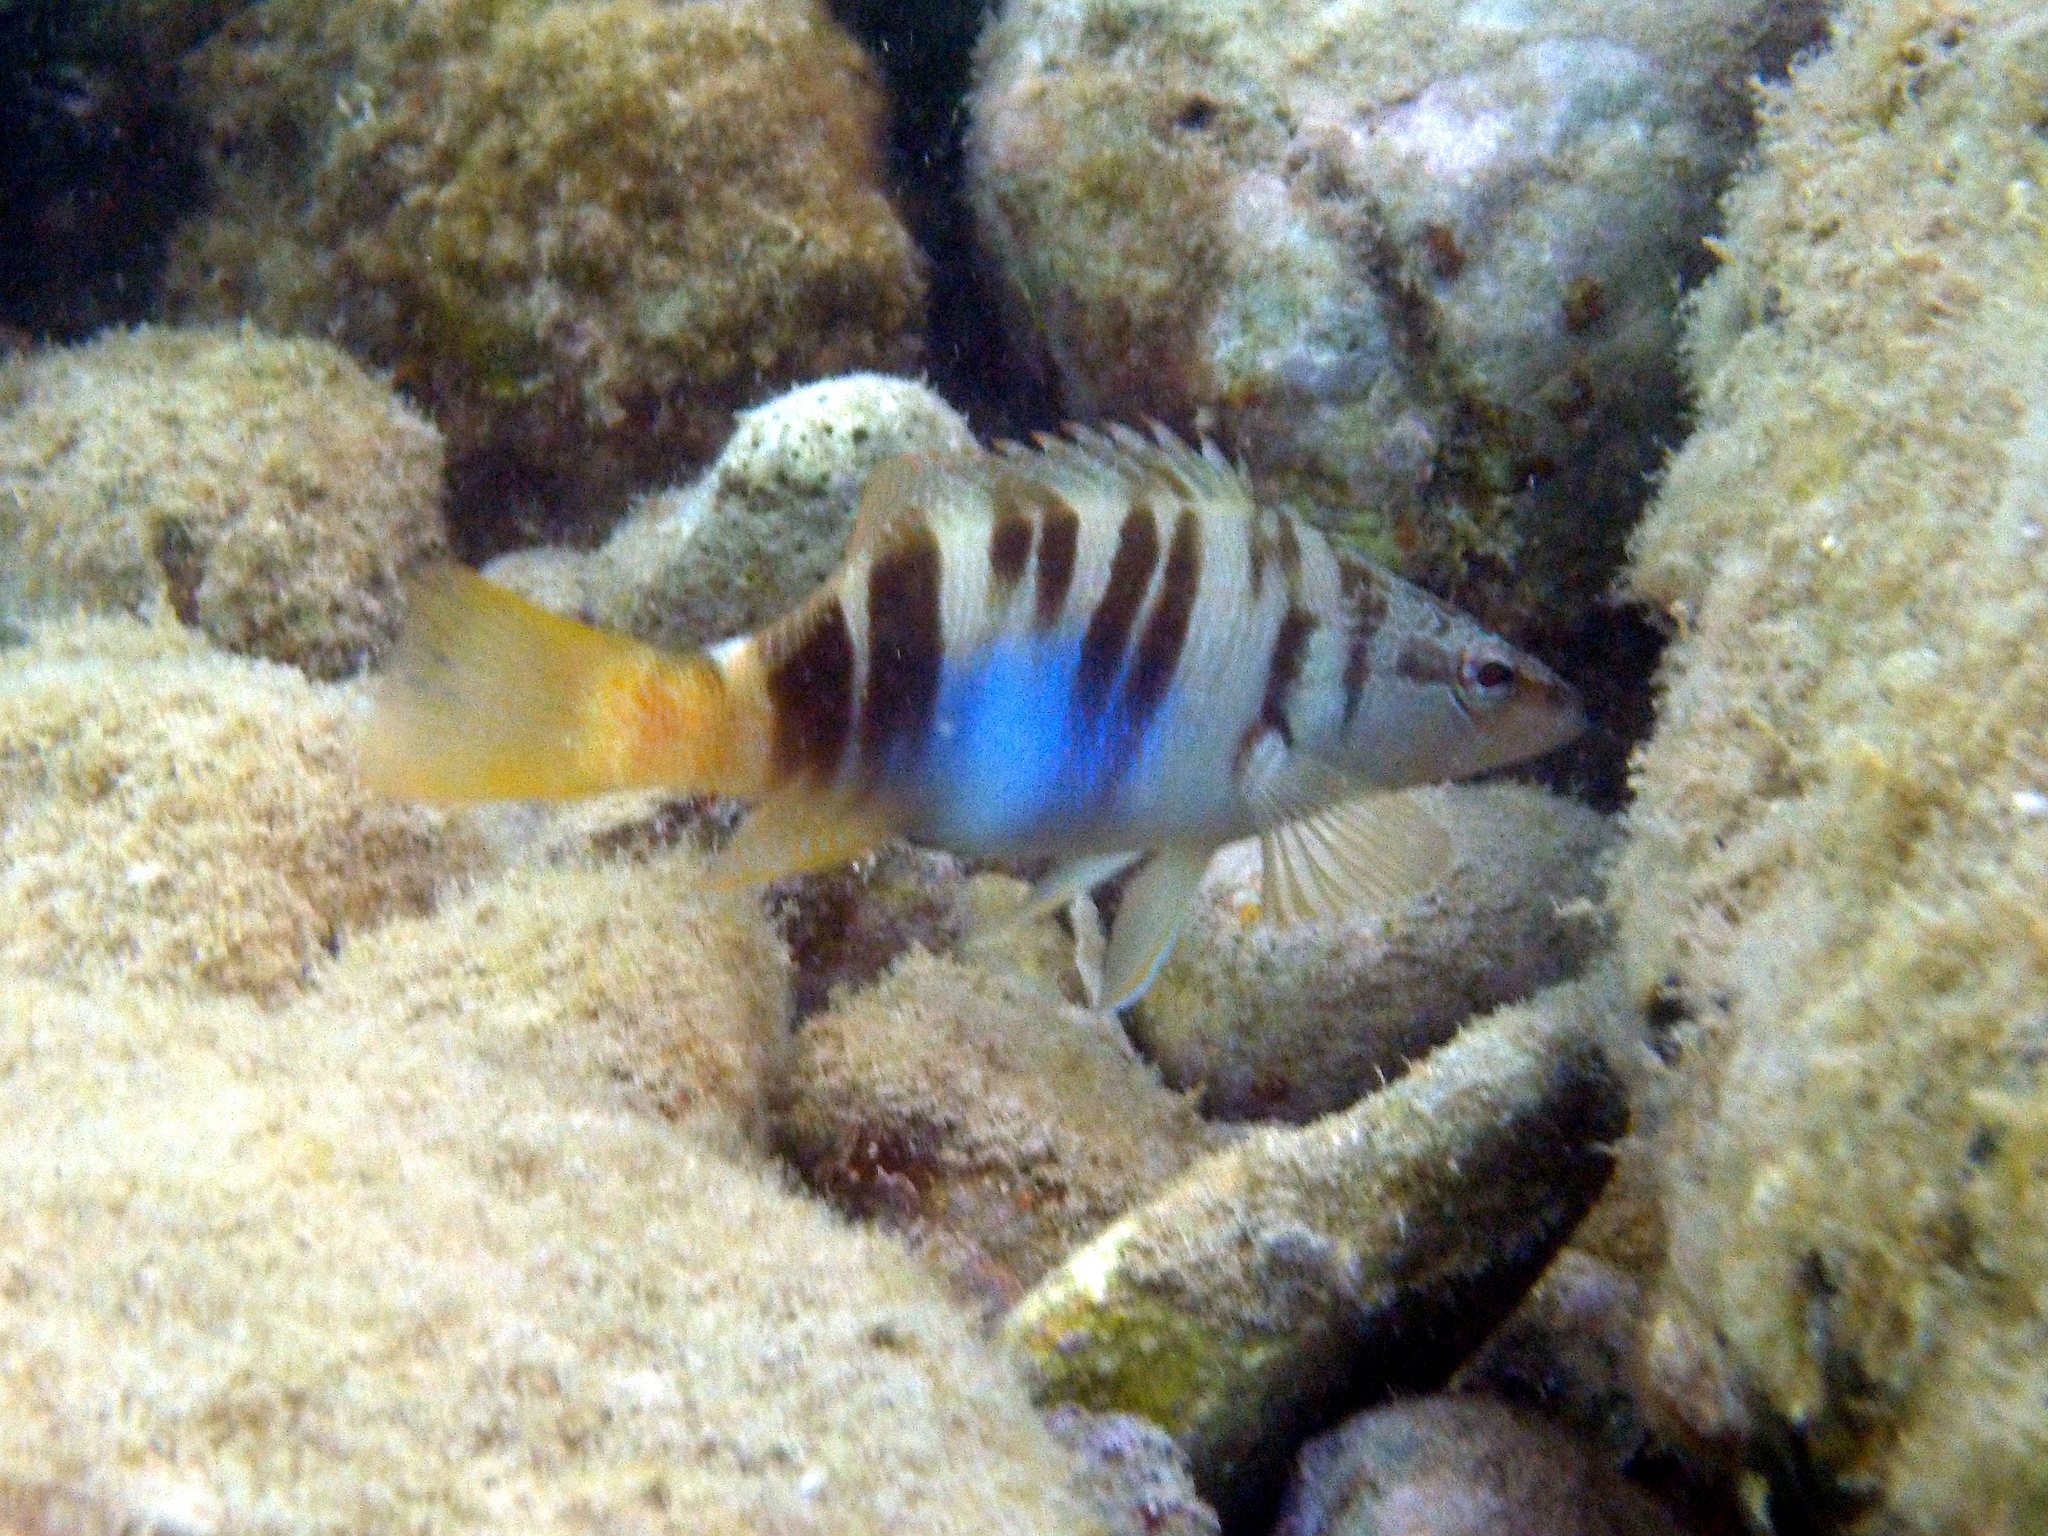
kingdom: Animalia
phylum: Chordata
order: Perciformes
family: Serranidae
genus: Serranus
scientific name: Serranus scriba
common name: Painted comber
